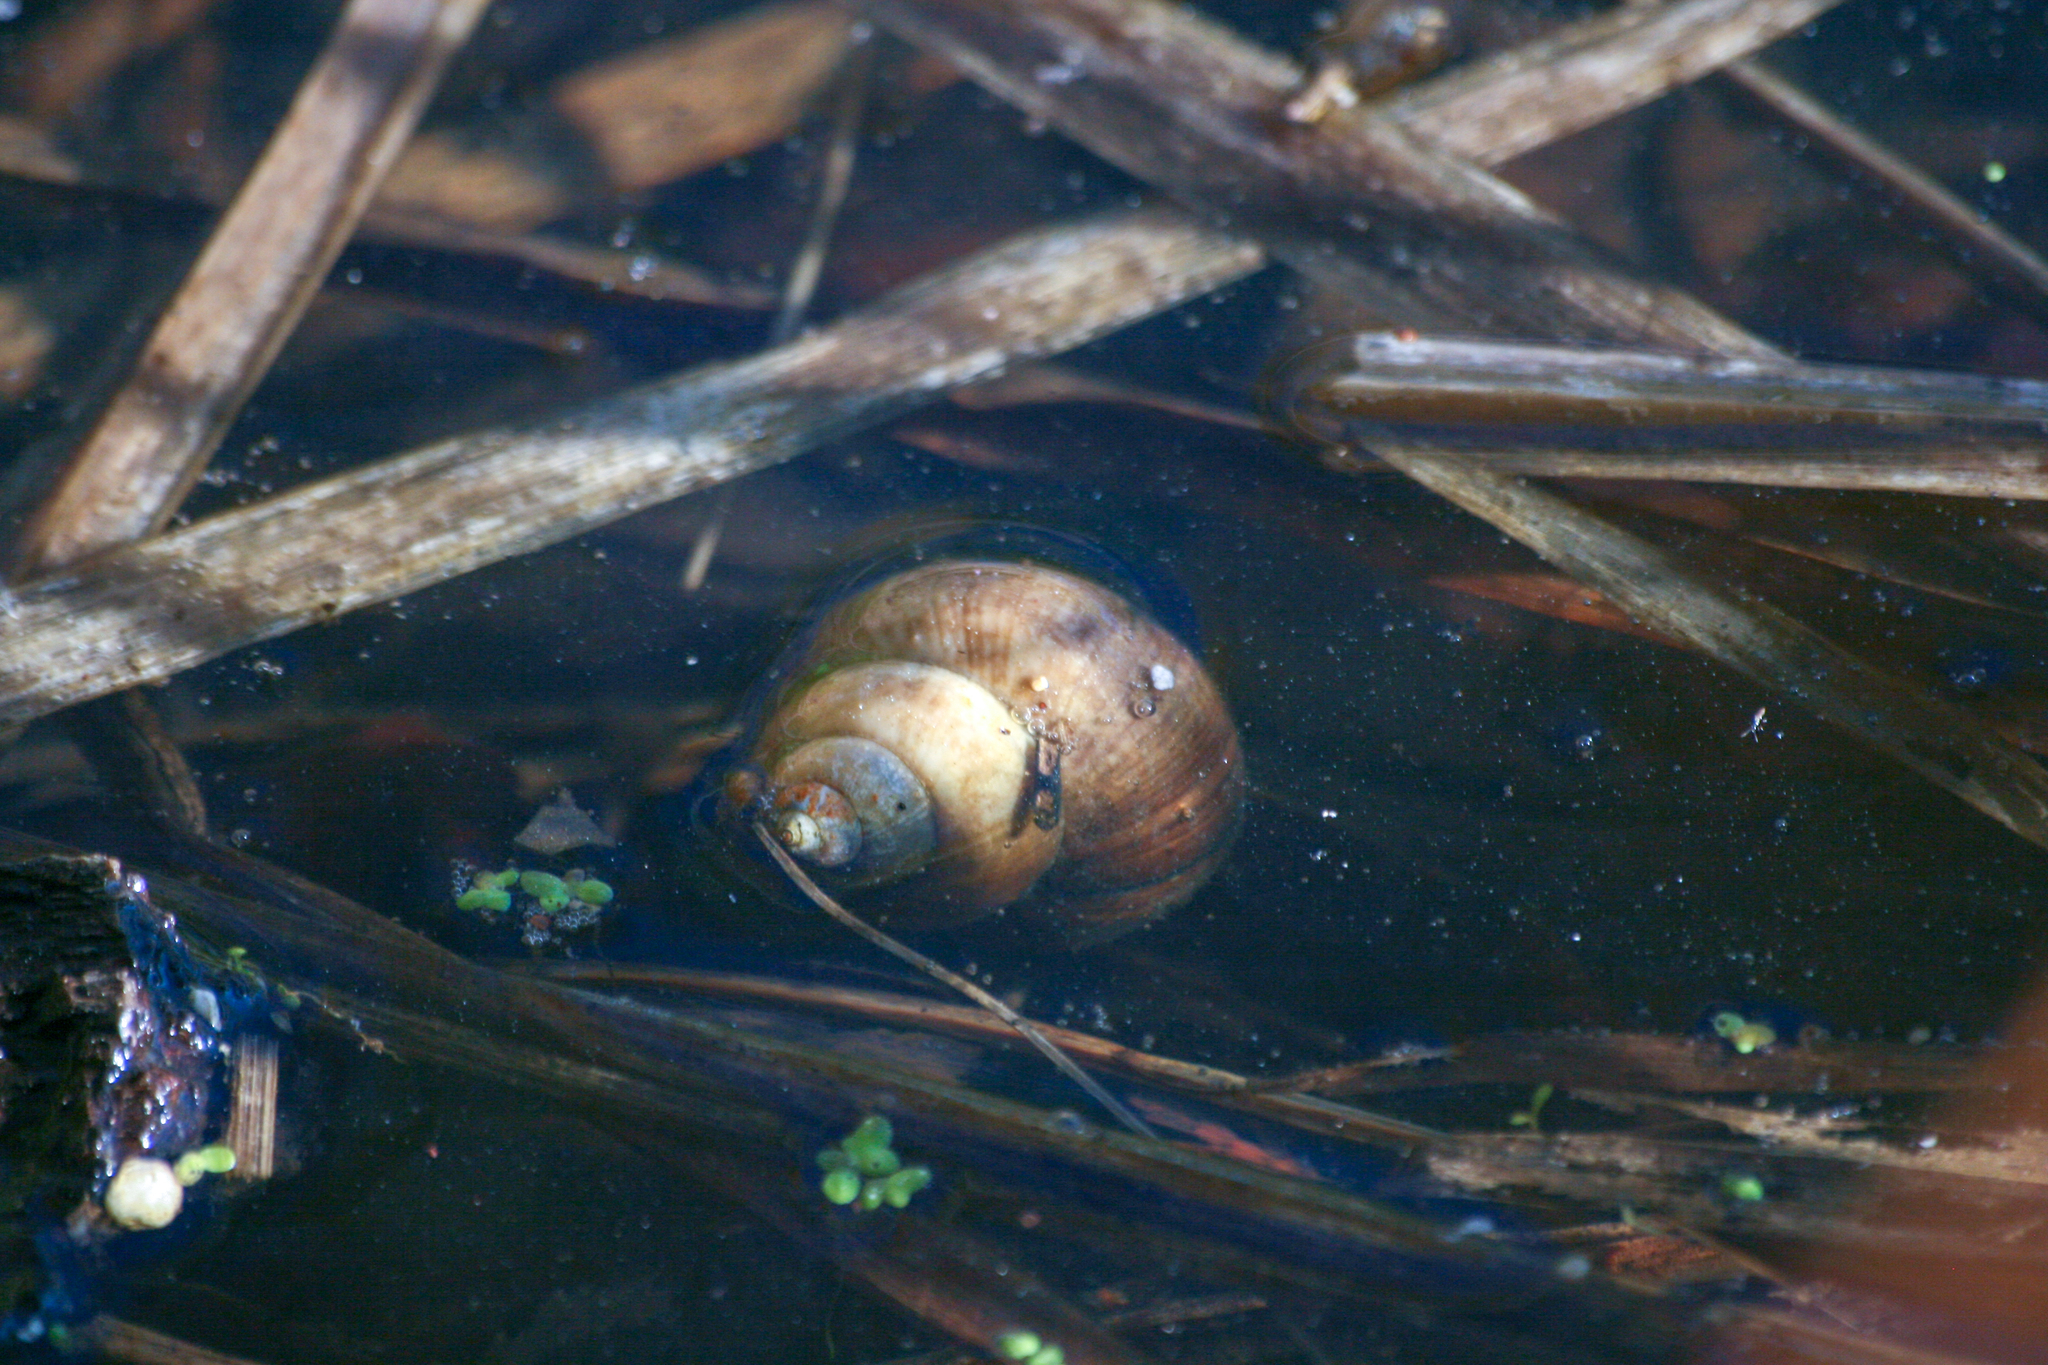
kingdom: Animalia
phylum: Mollusca
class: Gastropoda
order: Architaenioglossa
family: Viviparidae
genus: Cipangopaludina
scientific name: Cipangopaludina chinensis
